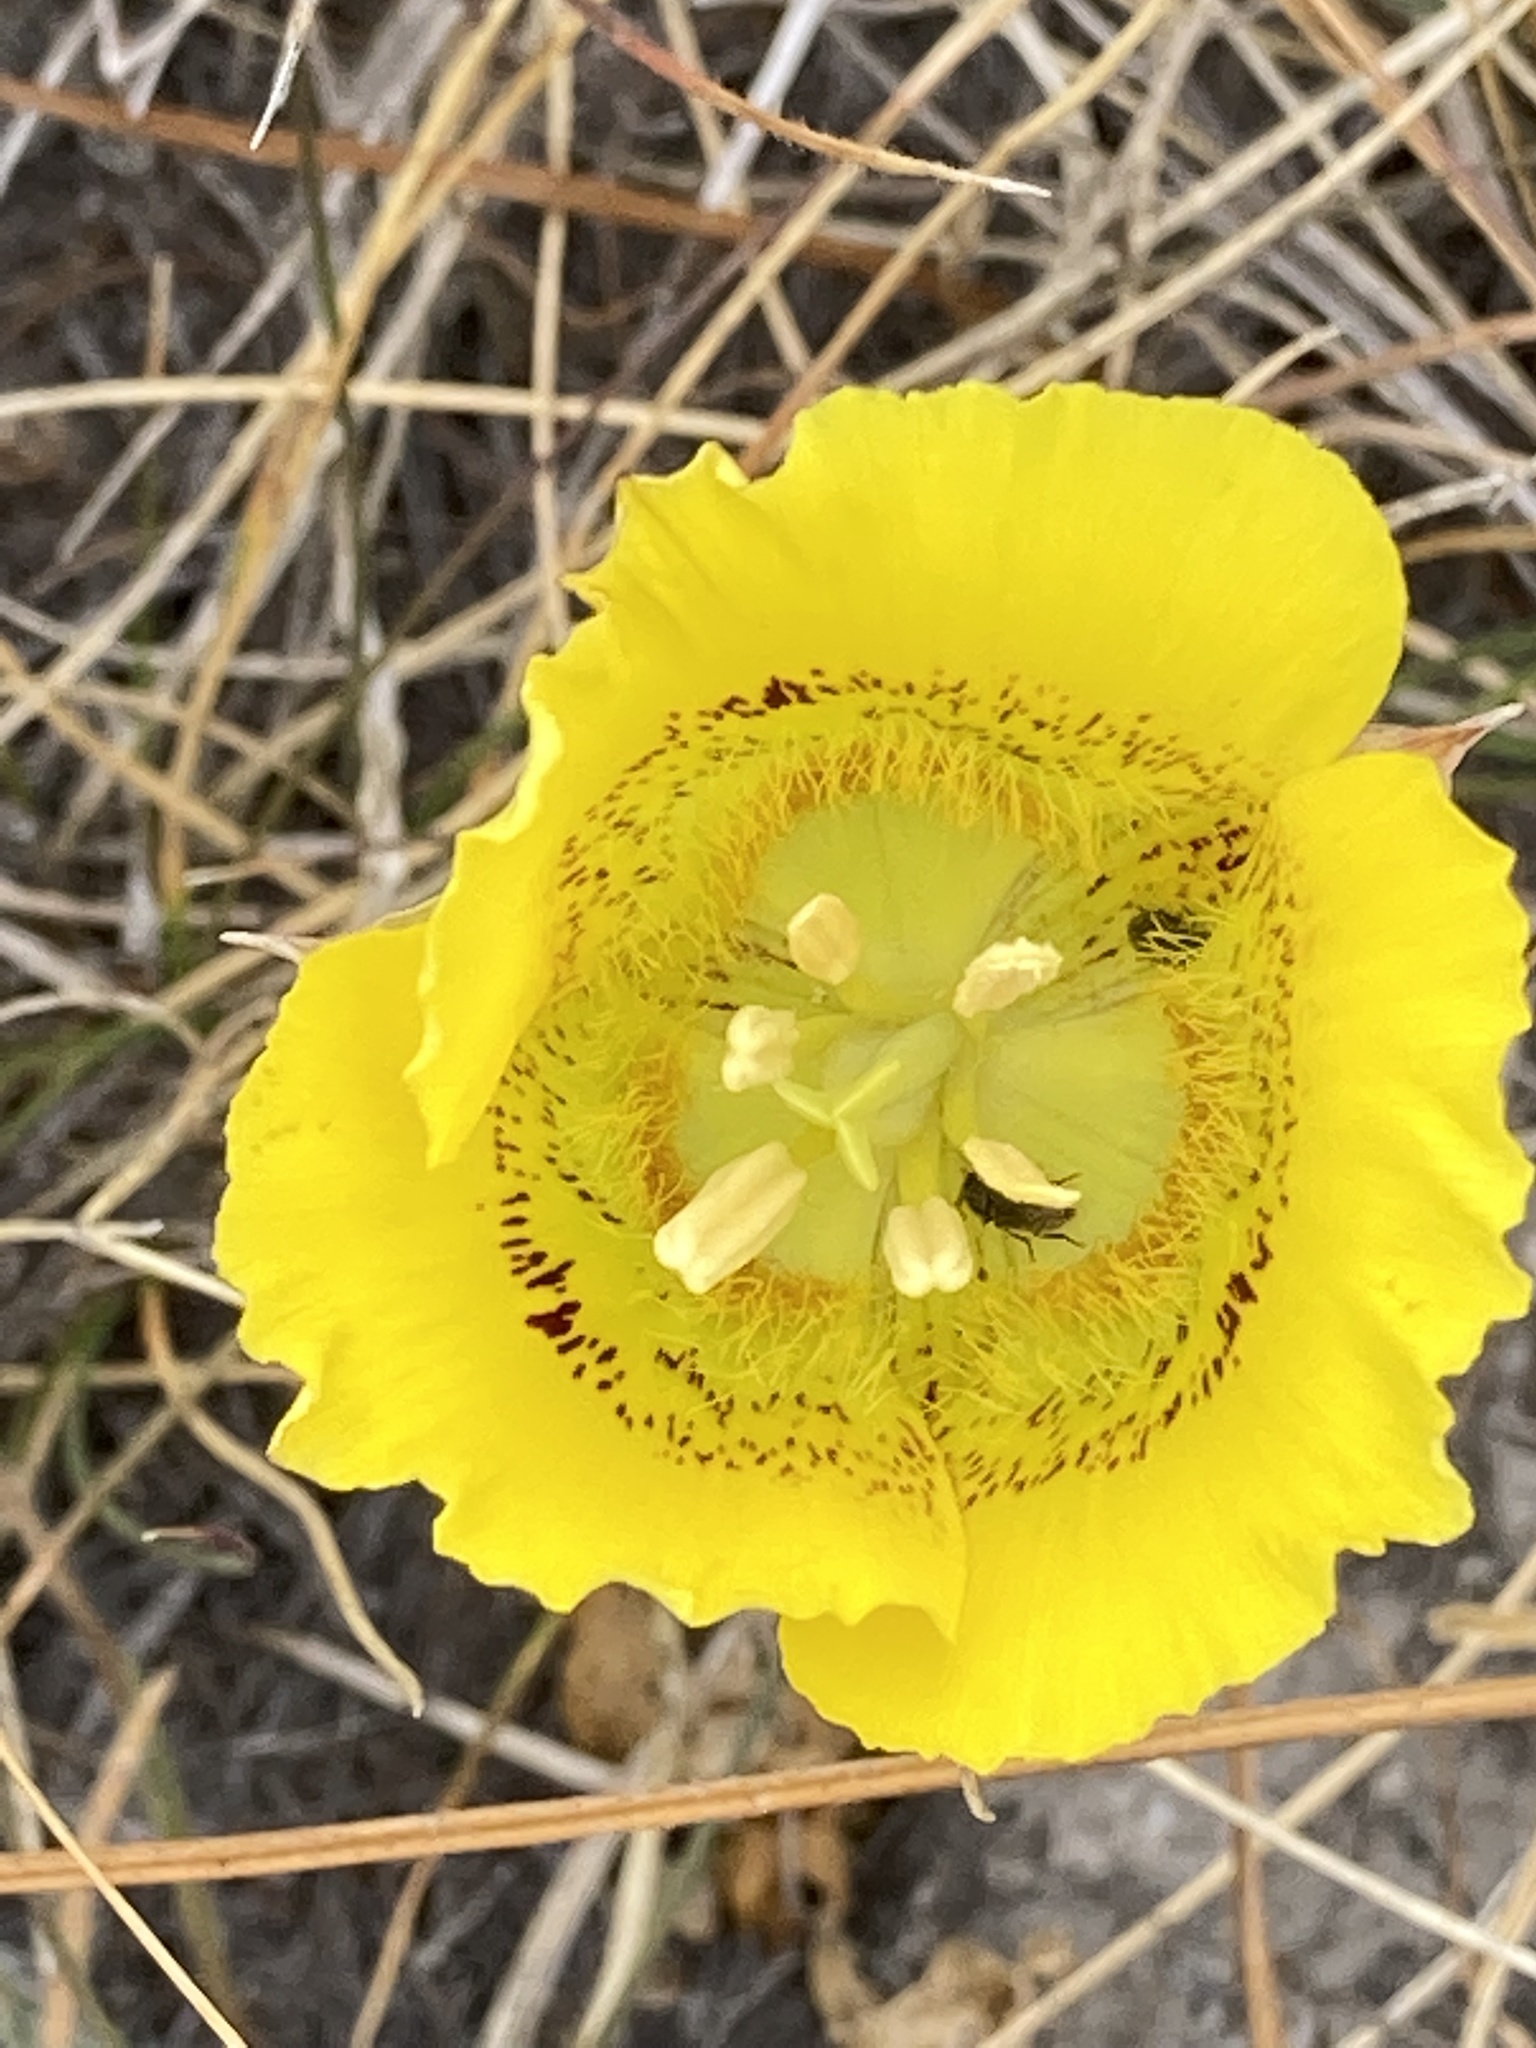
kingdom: Plantae
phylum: Tracheophyta
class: Liliopsida
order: Liliales
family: Liliaceae
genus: Calochortus
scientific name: Calochortus luteus
